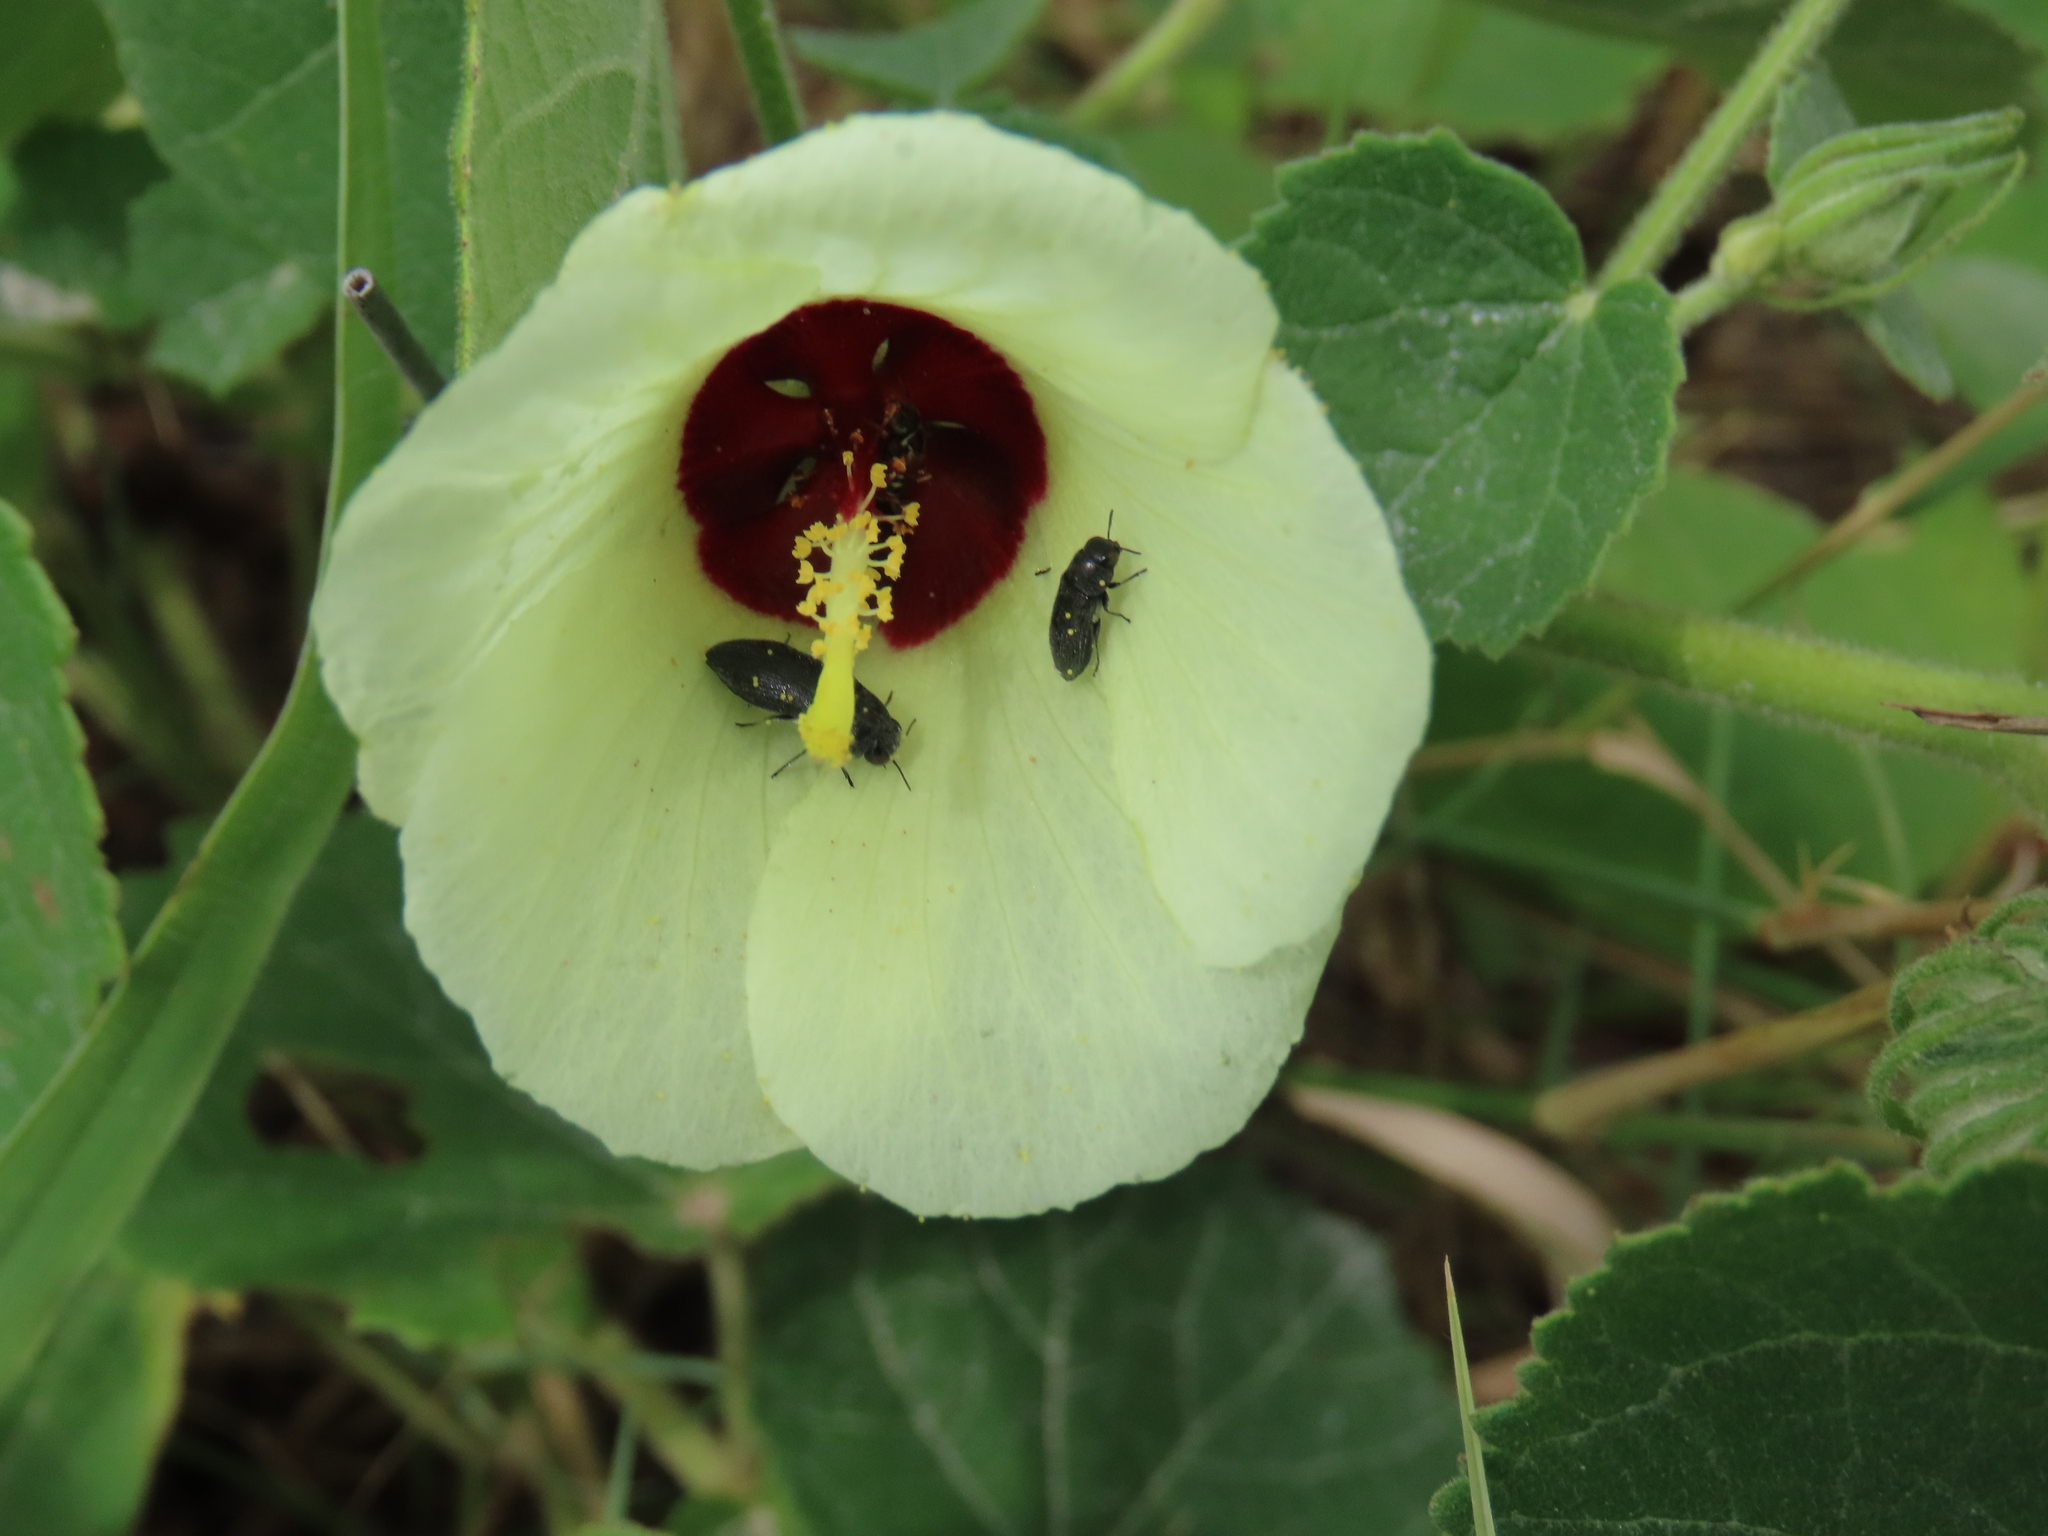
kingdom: Plantae
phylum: Tracheophyta
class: Magnoliopsida
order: Malvales
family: Malvaceae
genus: Pavonia
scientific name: Pavonia senegalensis
